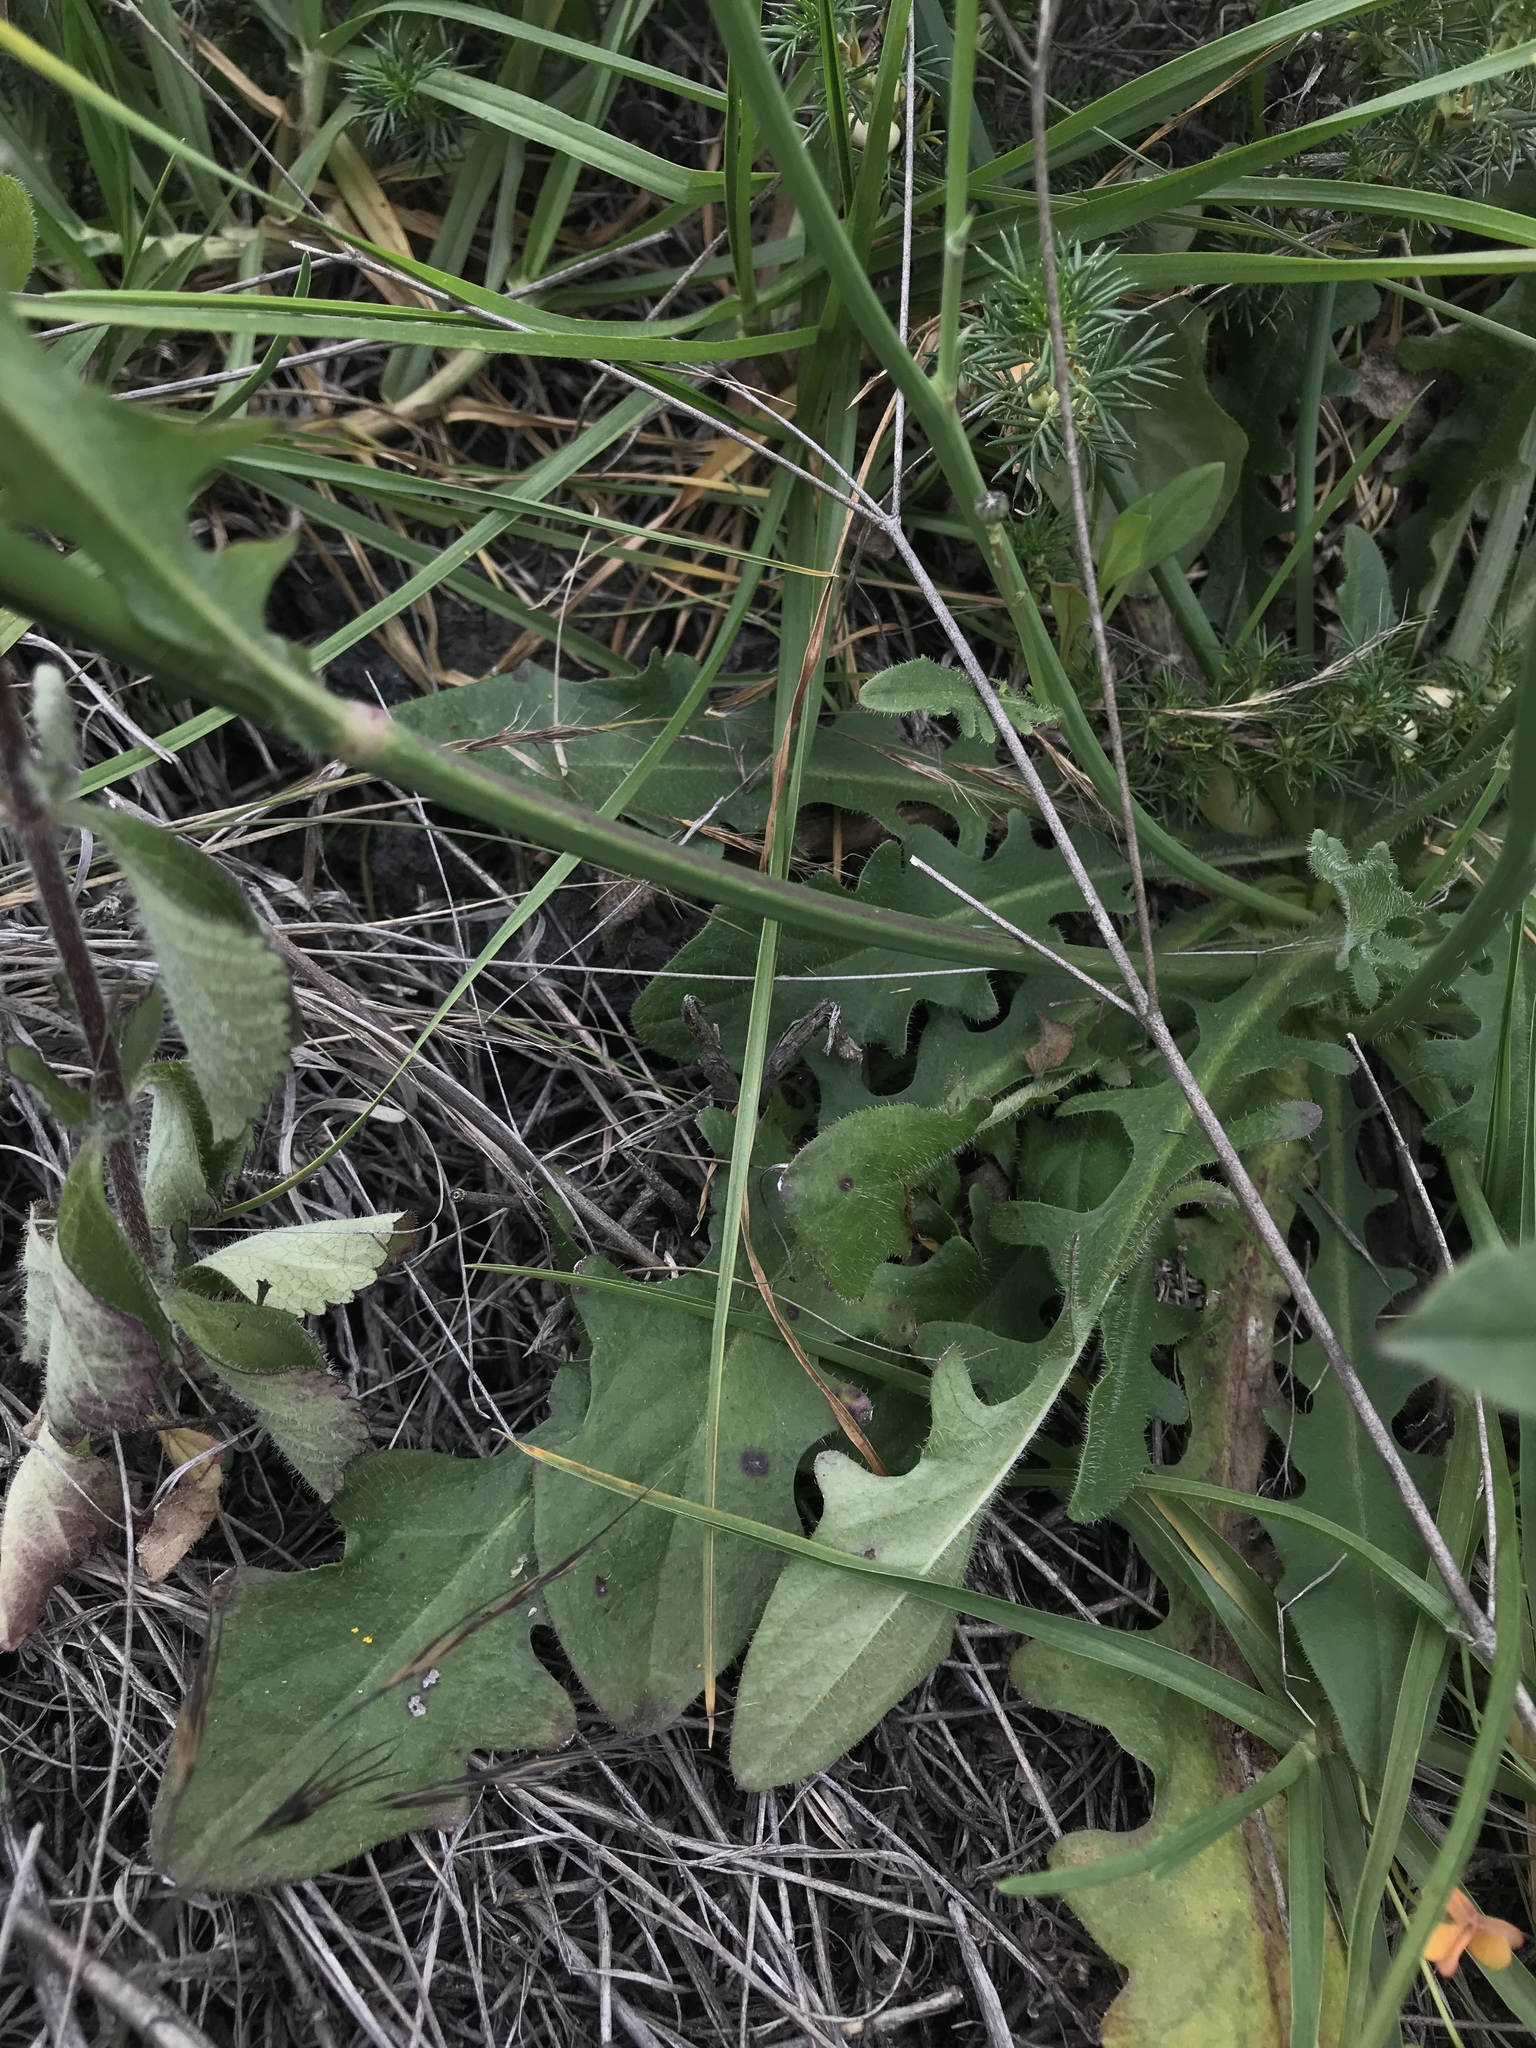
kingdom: Plantae
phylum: Tracheophyta
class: Magnoliopsida
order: Asterales
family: Asteraceae
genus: Hypochaeris
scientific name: Hypochaeris radicata
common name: Flatweed
